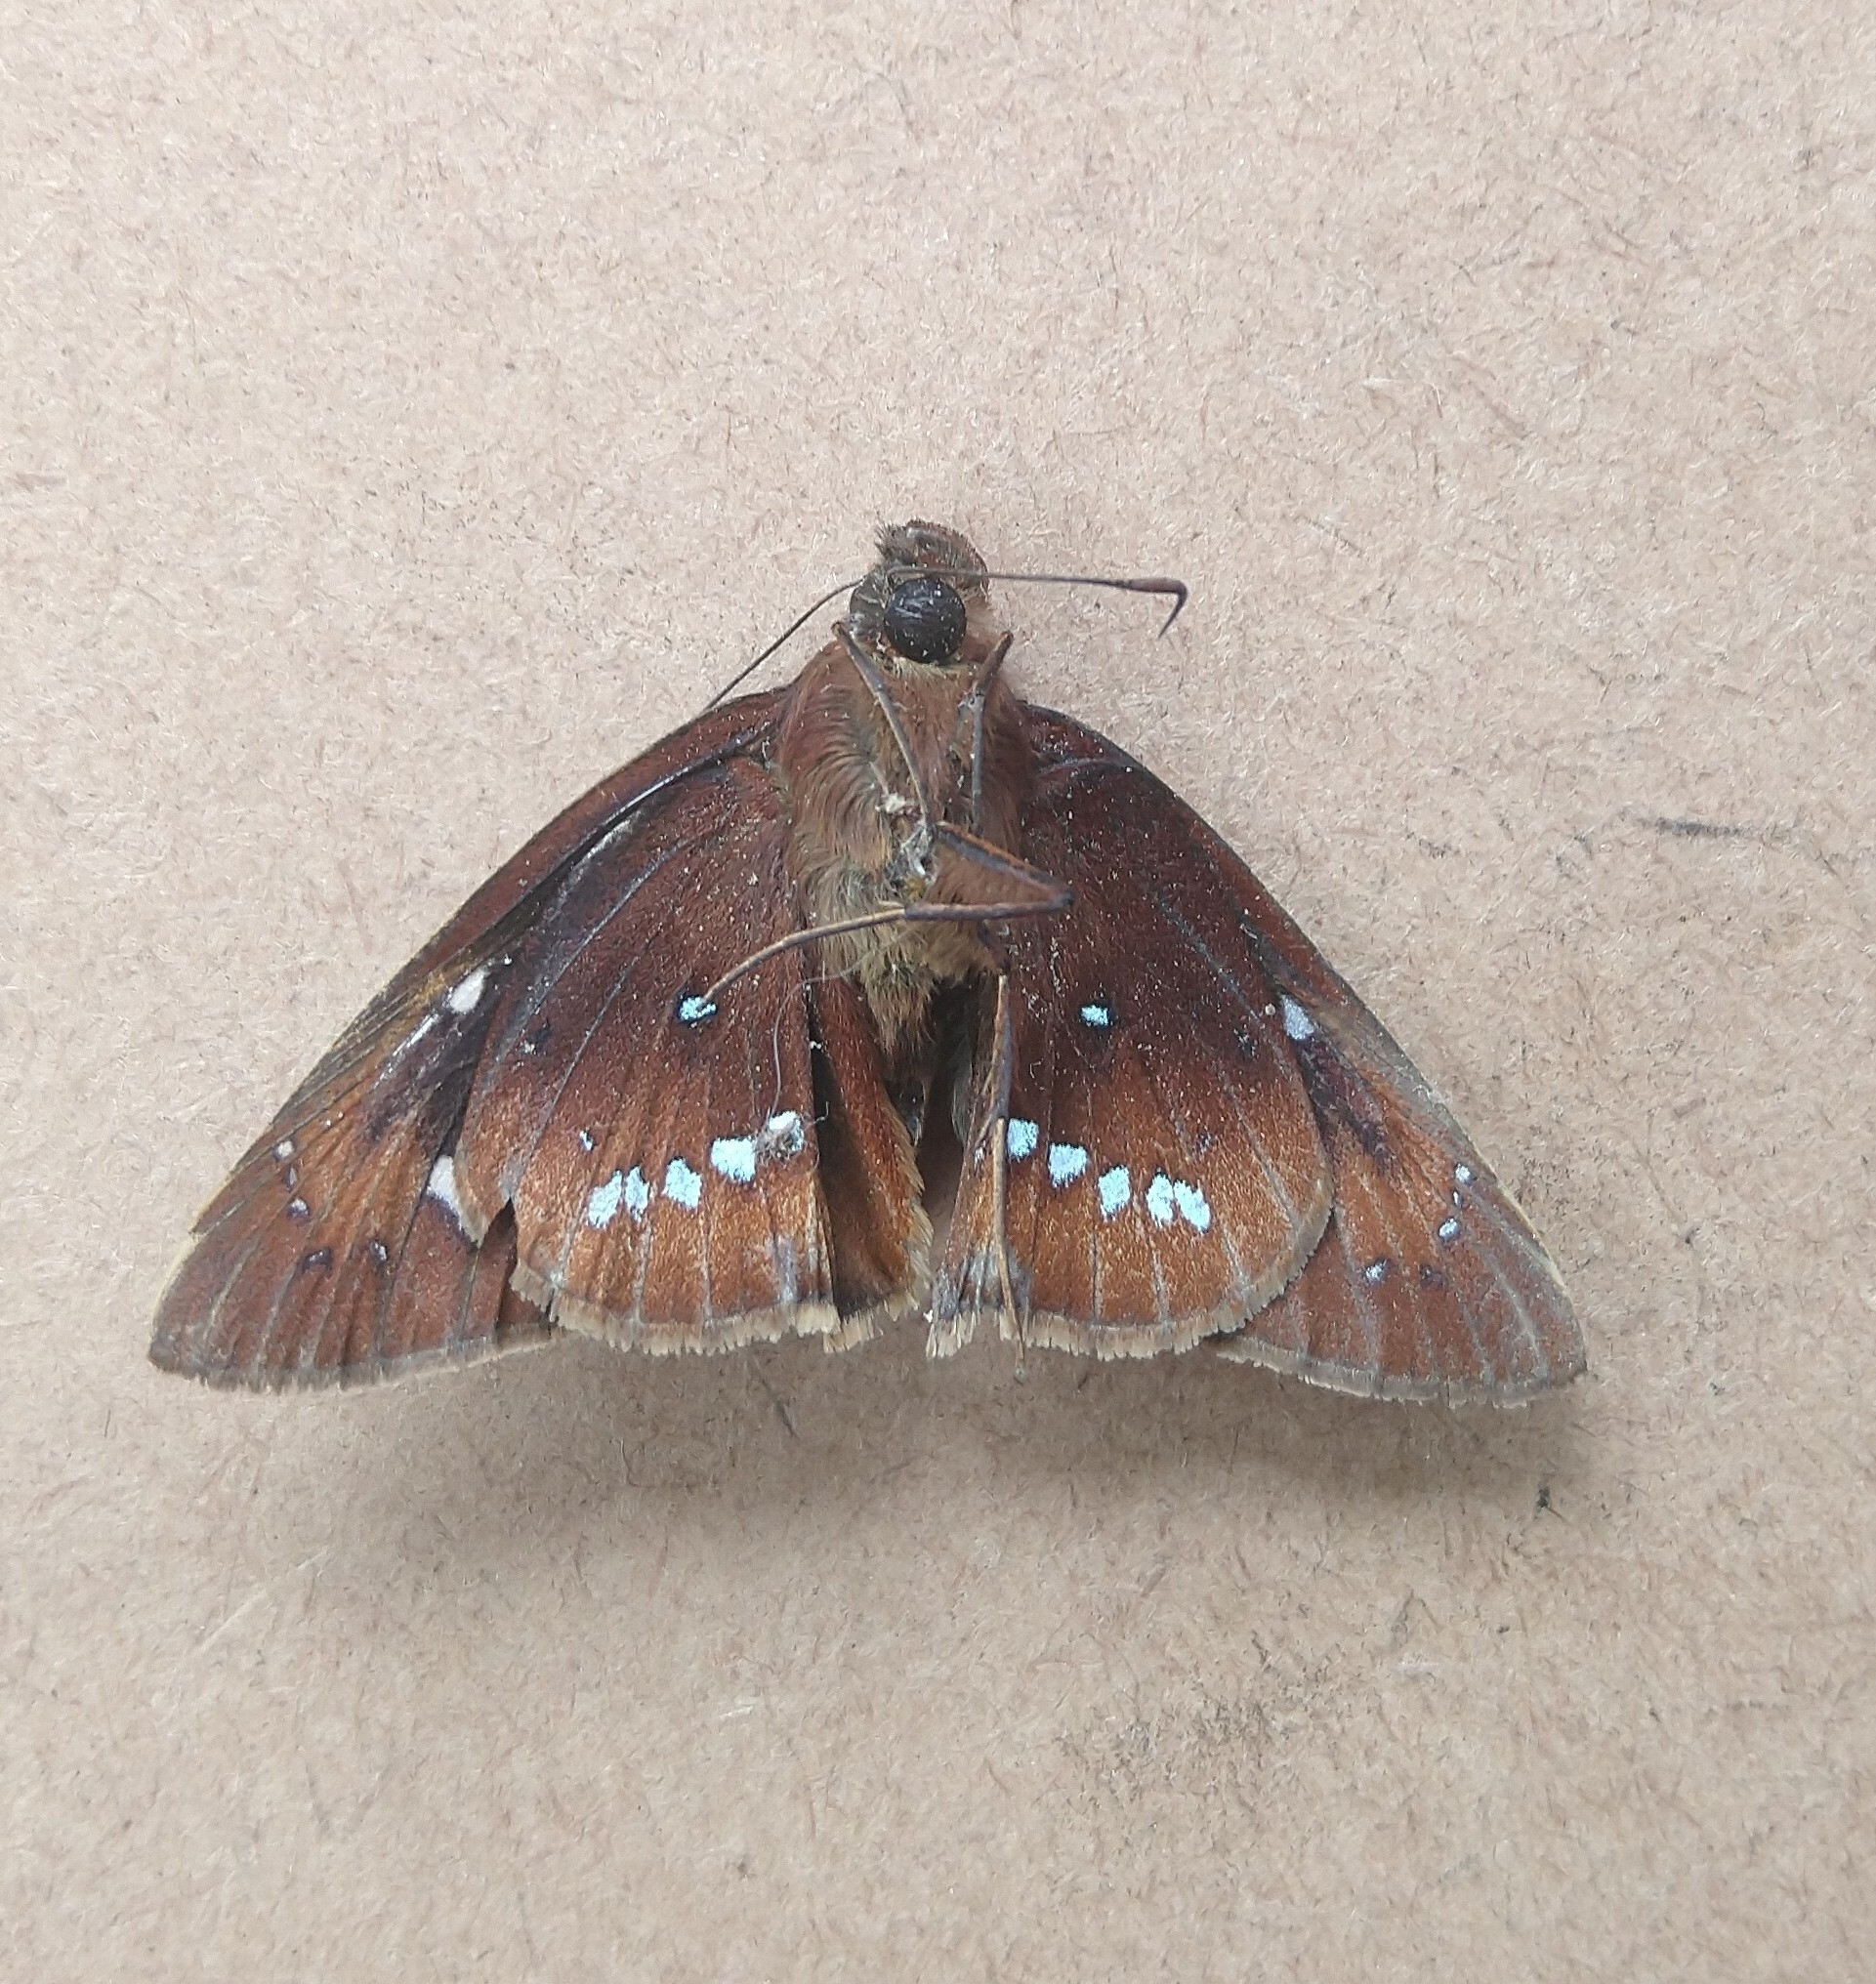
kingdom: Animalia
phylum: Arthropoda
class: Insecta
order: Lepidoptera
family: Hesperiidae
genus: Tisias
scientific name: Tisias quadrata
